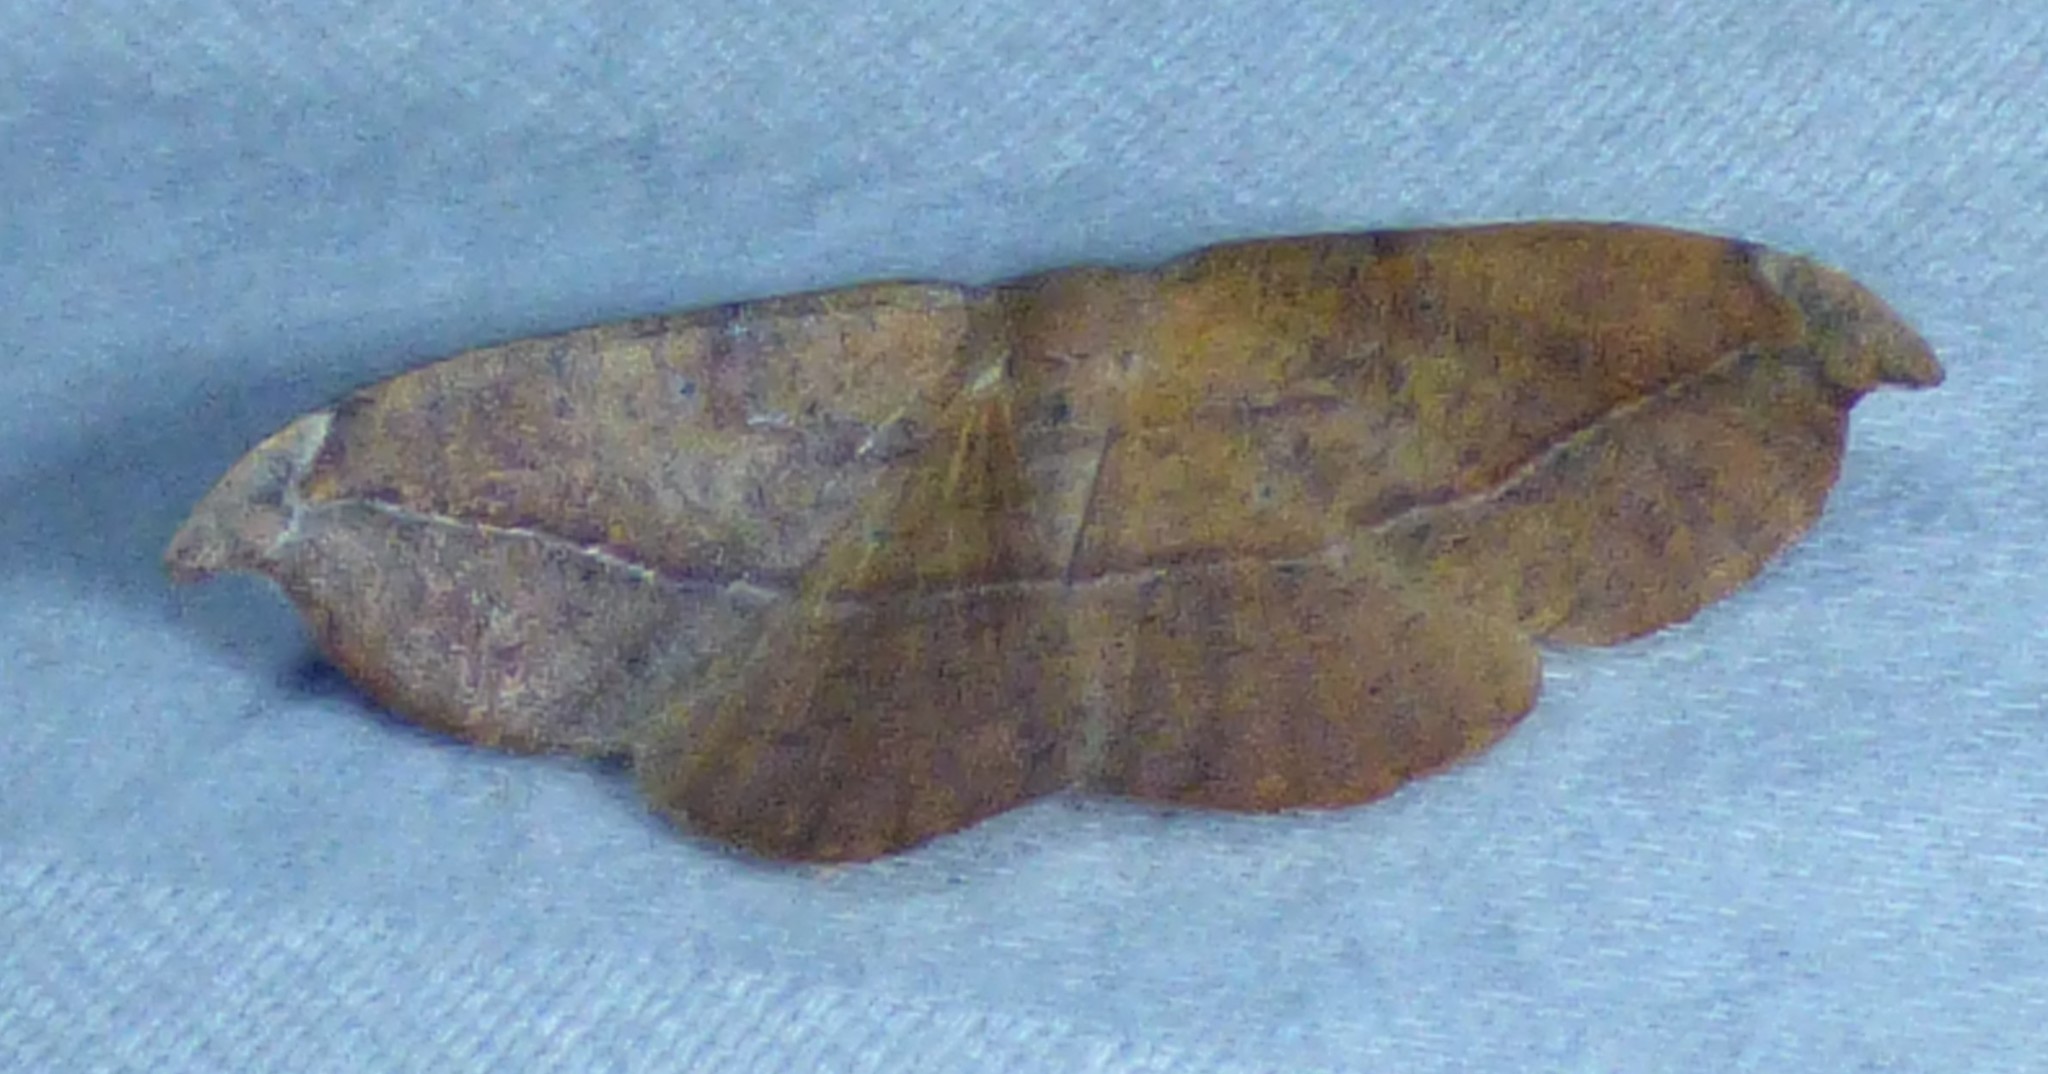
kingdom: Animalia
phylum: Arthropoda
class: Insecta
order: Lepidoptera
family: Geometridae
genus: Patalene
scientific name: Patalene olyzonaria
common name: Juniper geometer moth
